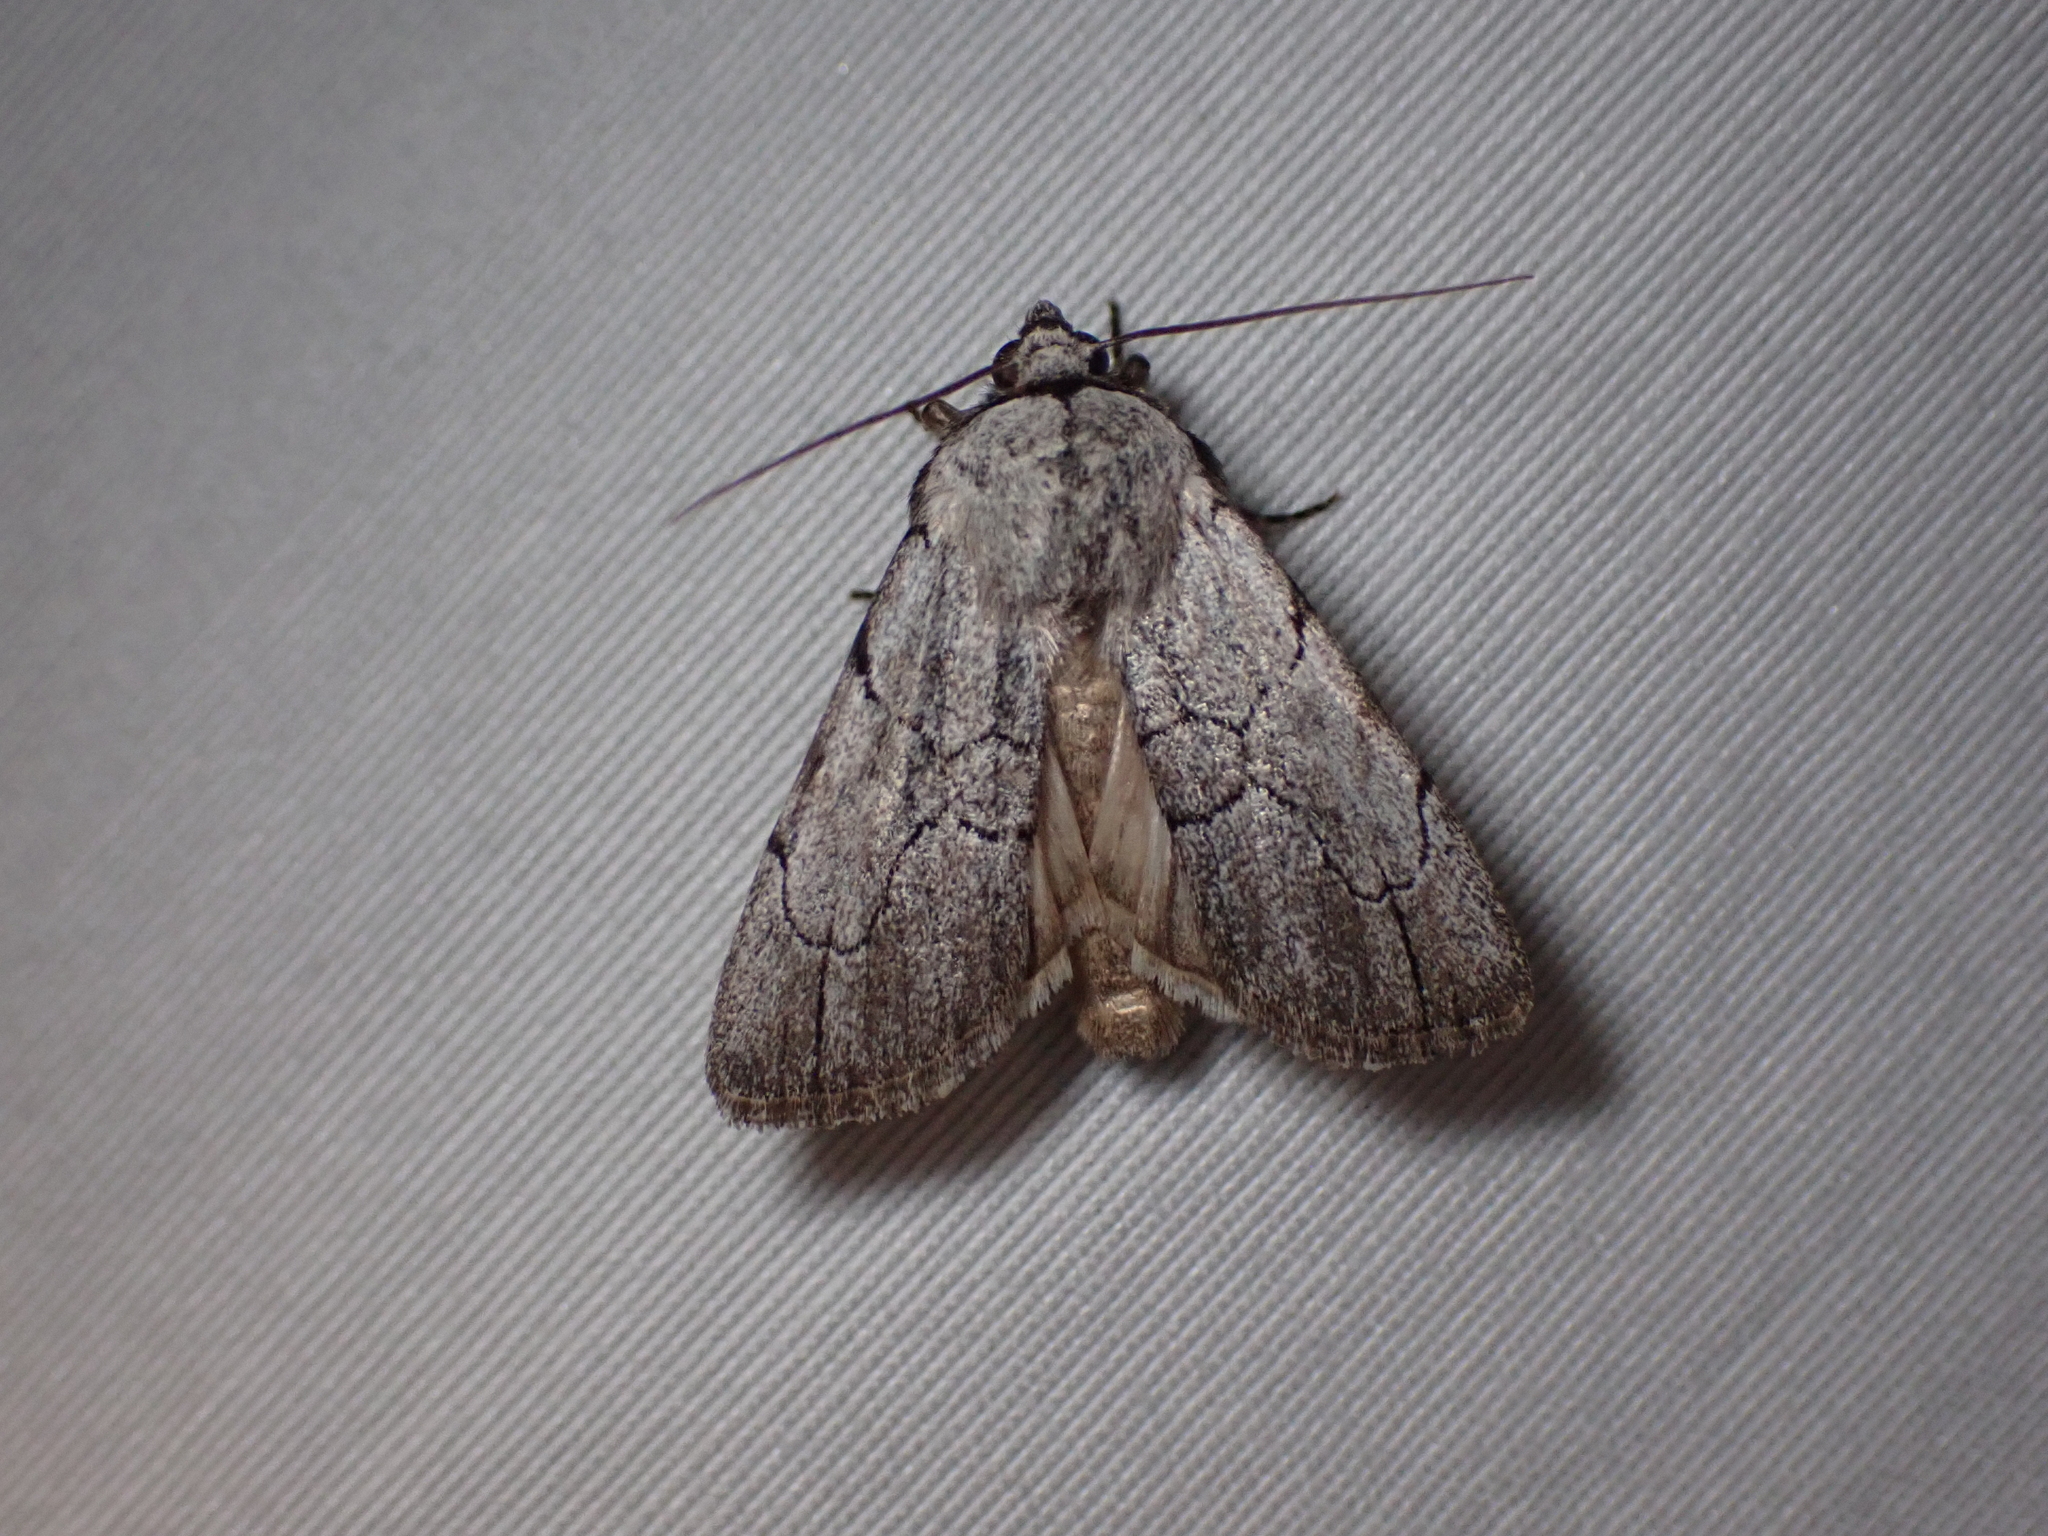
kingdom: Animalia
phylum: Arthropoda
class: Insecta
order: Lepidoptera
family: Noctuidae
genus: Sympistis
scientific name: Sympistis semicollaris
